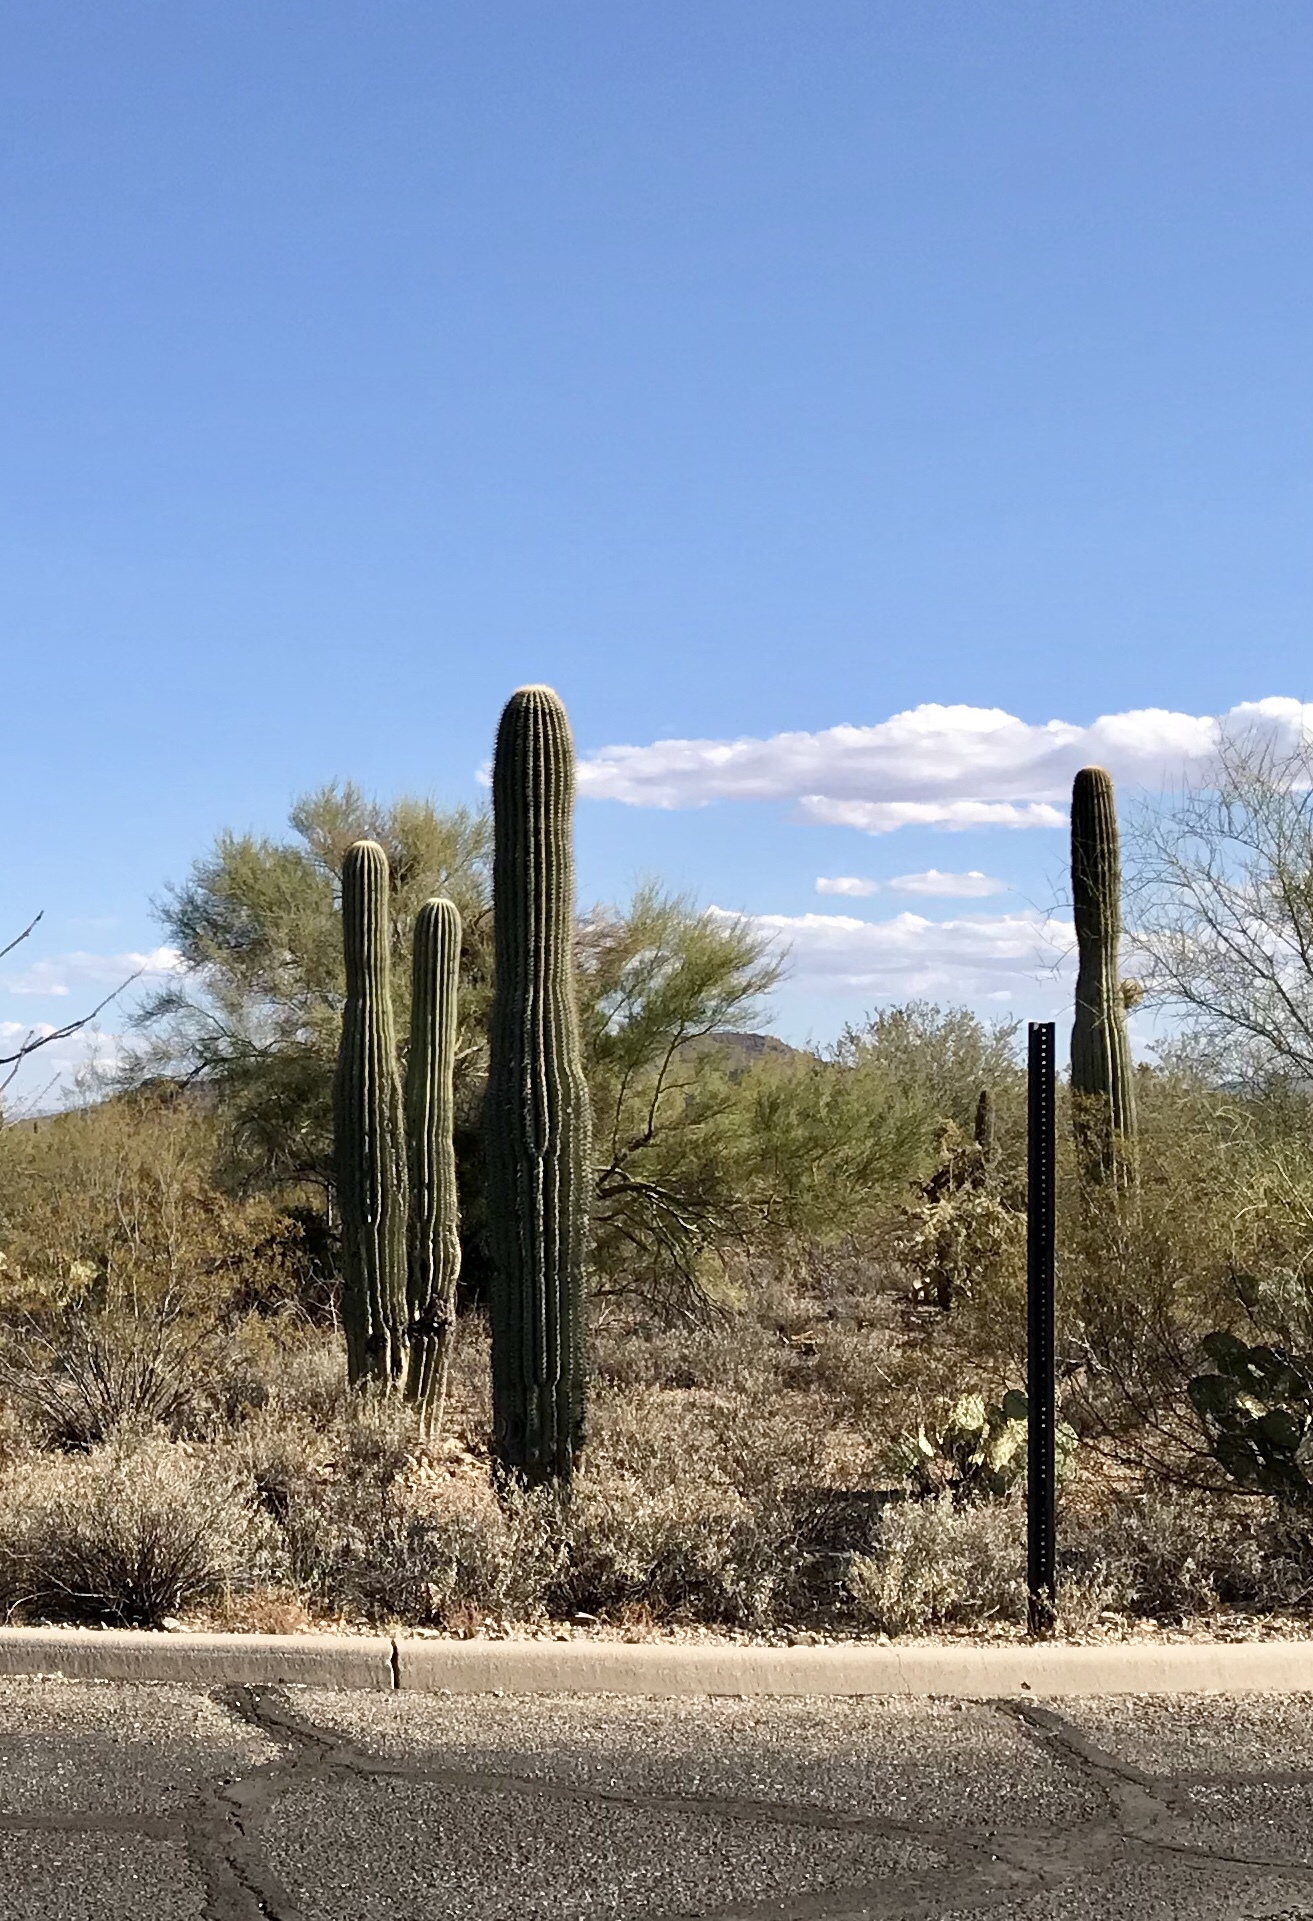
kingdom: Plantae
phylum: Tracheophyta
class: Magnoliopsida
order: Caryophyllales
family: Cactaceae
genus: Carnegiea
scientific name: Carnegiea gigantea
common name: Saguaro
